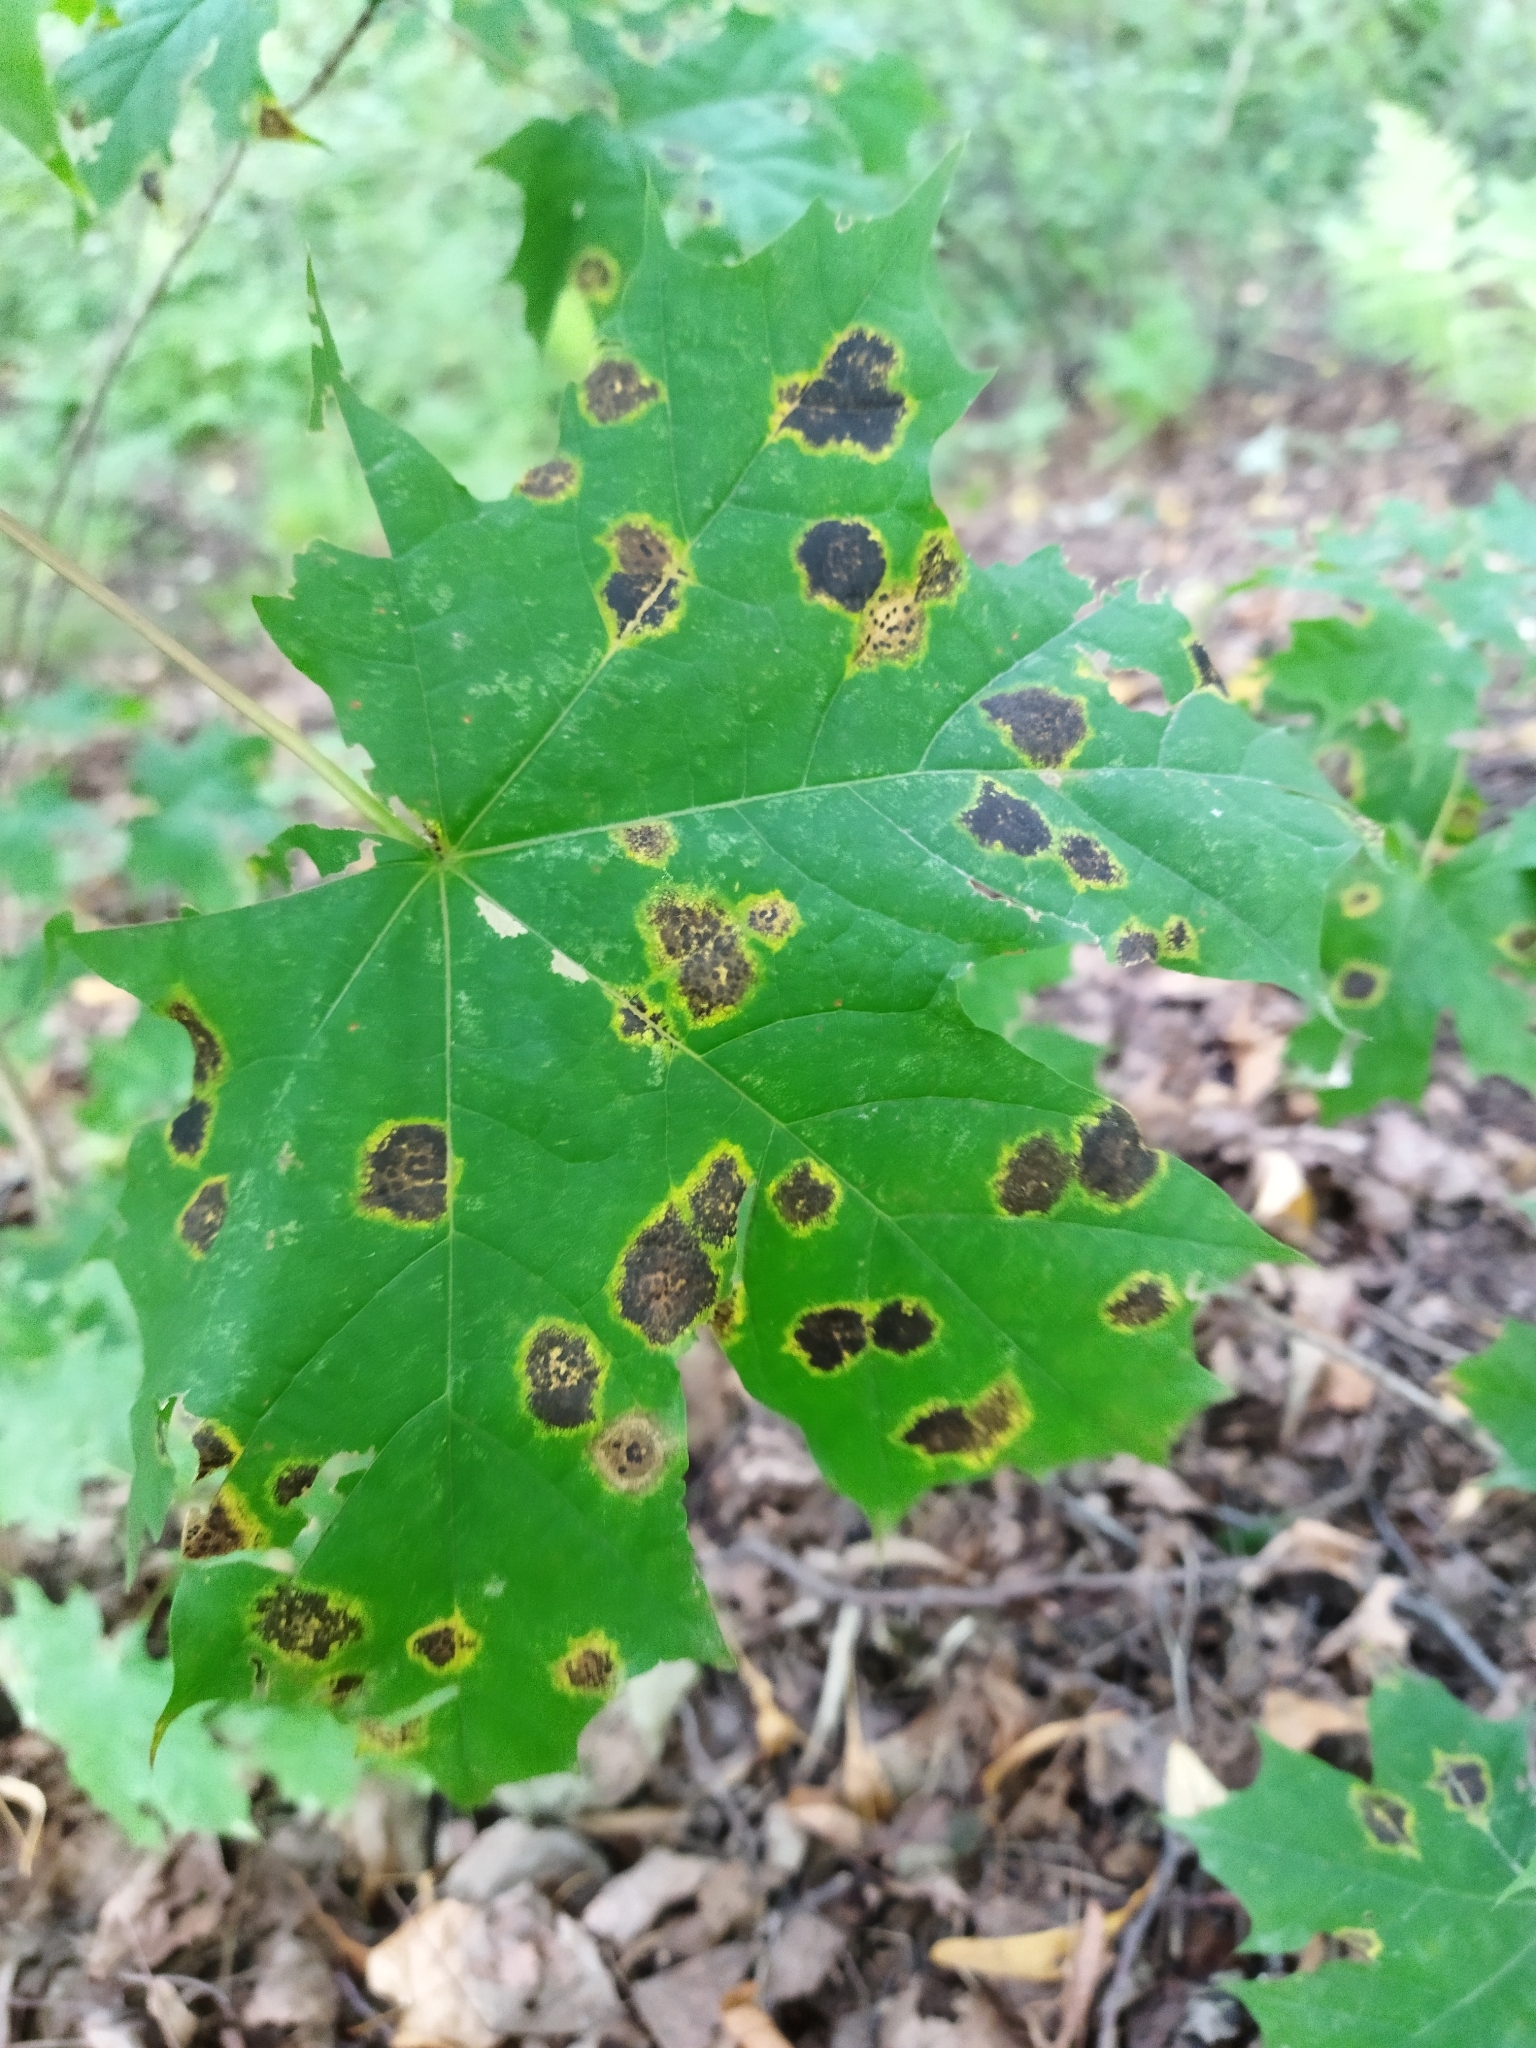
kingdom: Fungi
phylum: Ascomycota
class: Leotiomycetes
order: Rhytismatales
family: Rhytismataceae
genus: Rhytisma
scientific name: Rhytisma acerinum
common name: European tar spot
